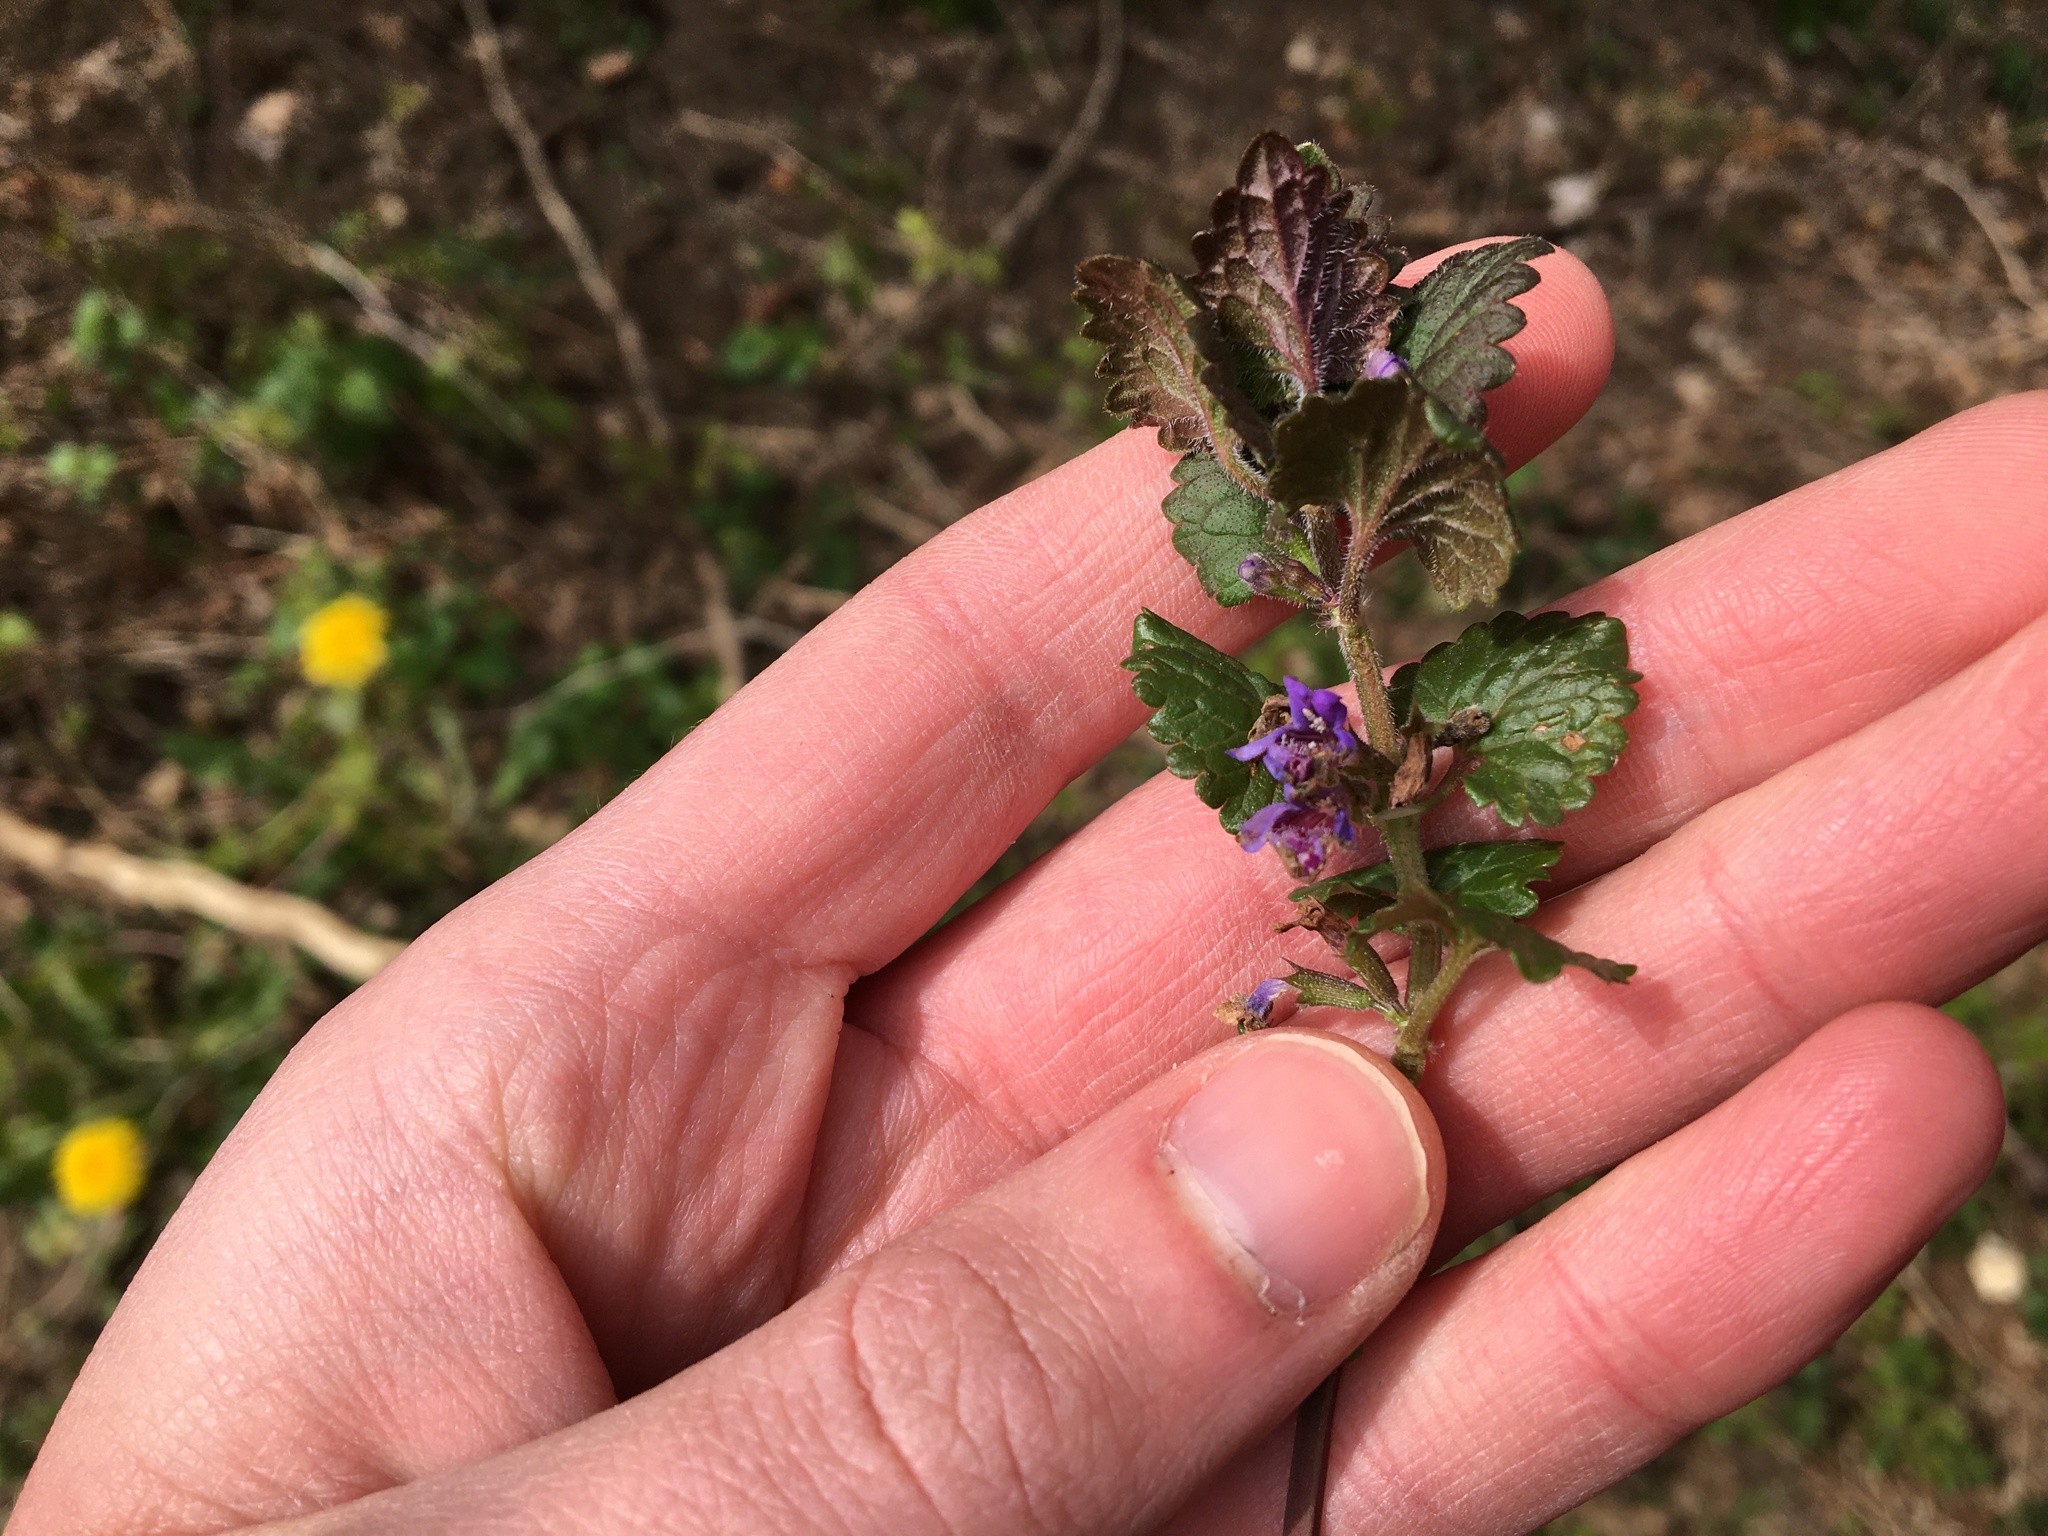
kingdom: Plantae
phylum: Tracheophyta
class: Magnoliopsida
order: Lamiales
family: Lamiaceae
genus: Glechoma
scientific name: Glechoma hederacea
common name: Ground ivy
